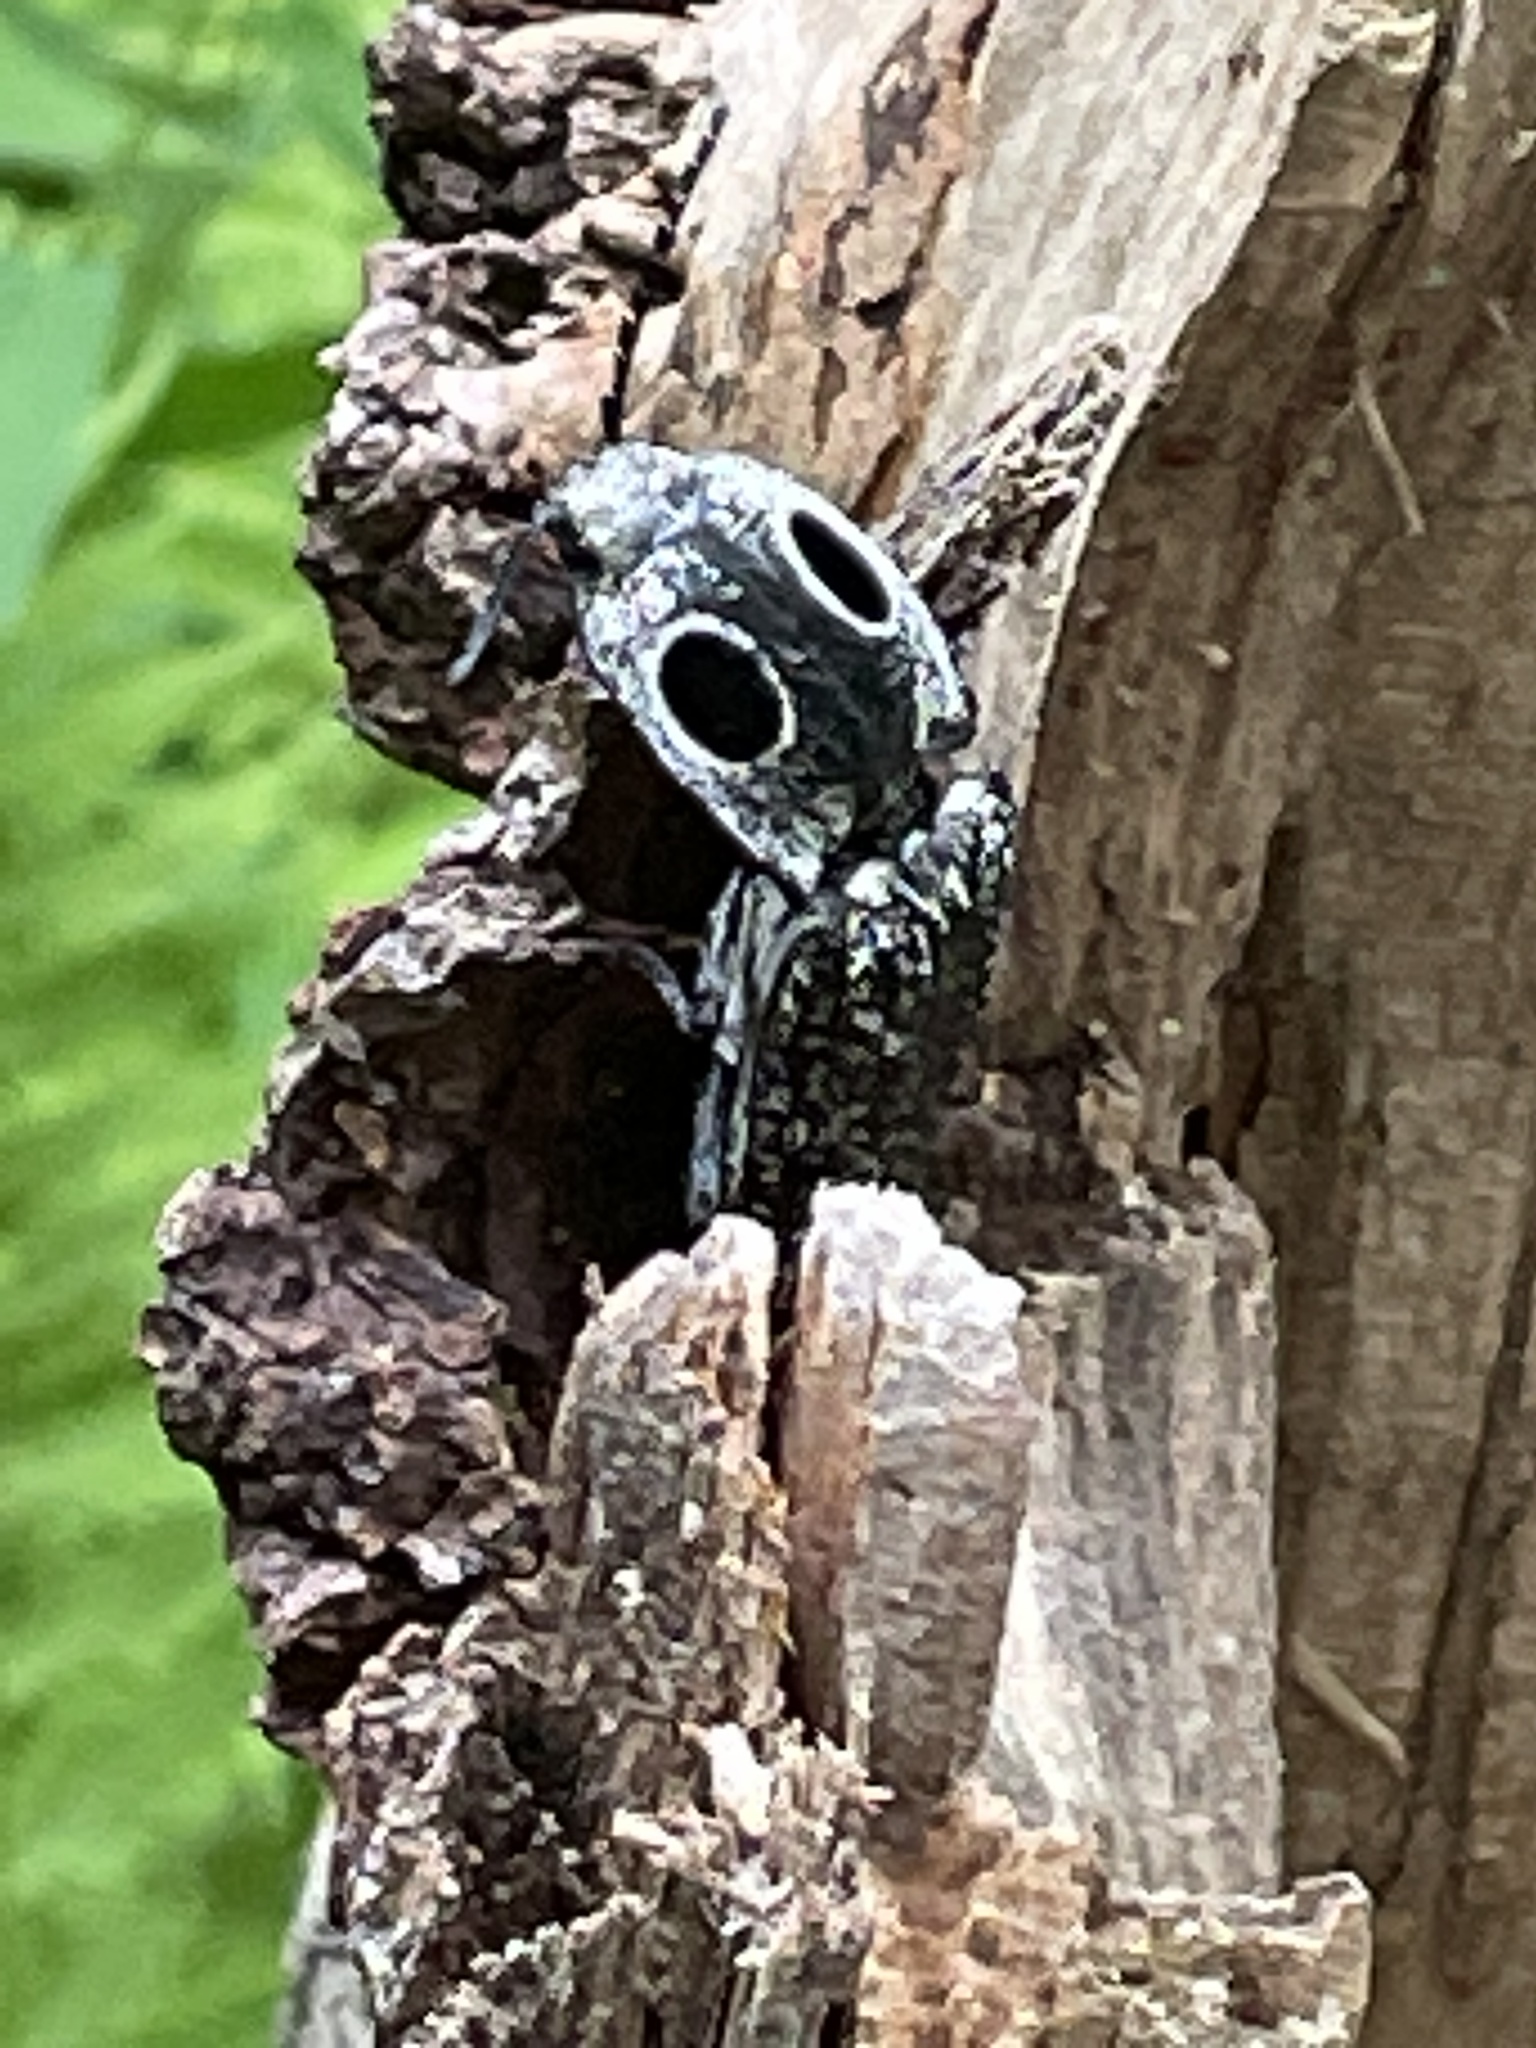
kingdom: Animalia
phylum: Arthropoda
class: Insecta
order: Coleoptera
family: Elateridae
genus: Alaus
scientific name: Alaus oculatus
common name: Eastern eyed click beetle
